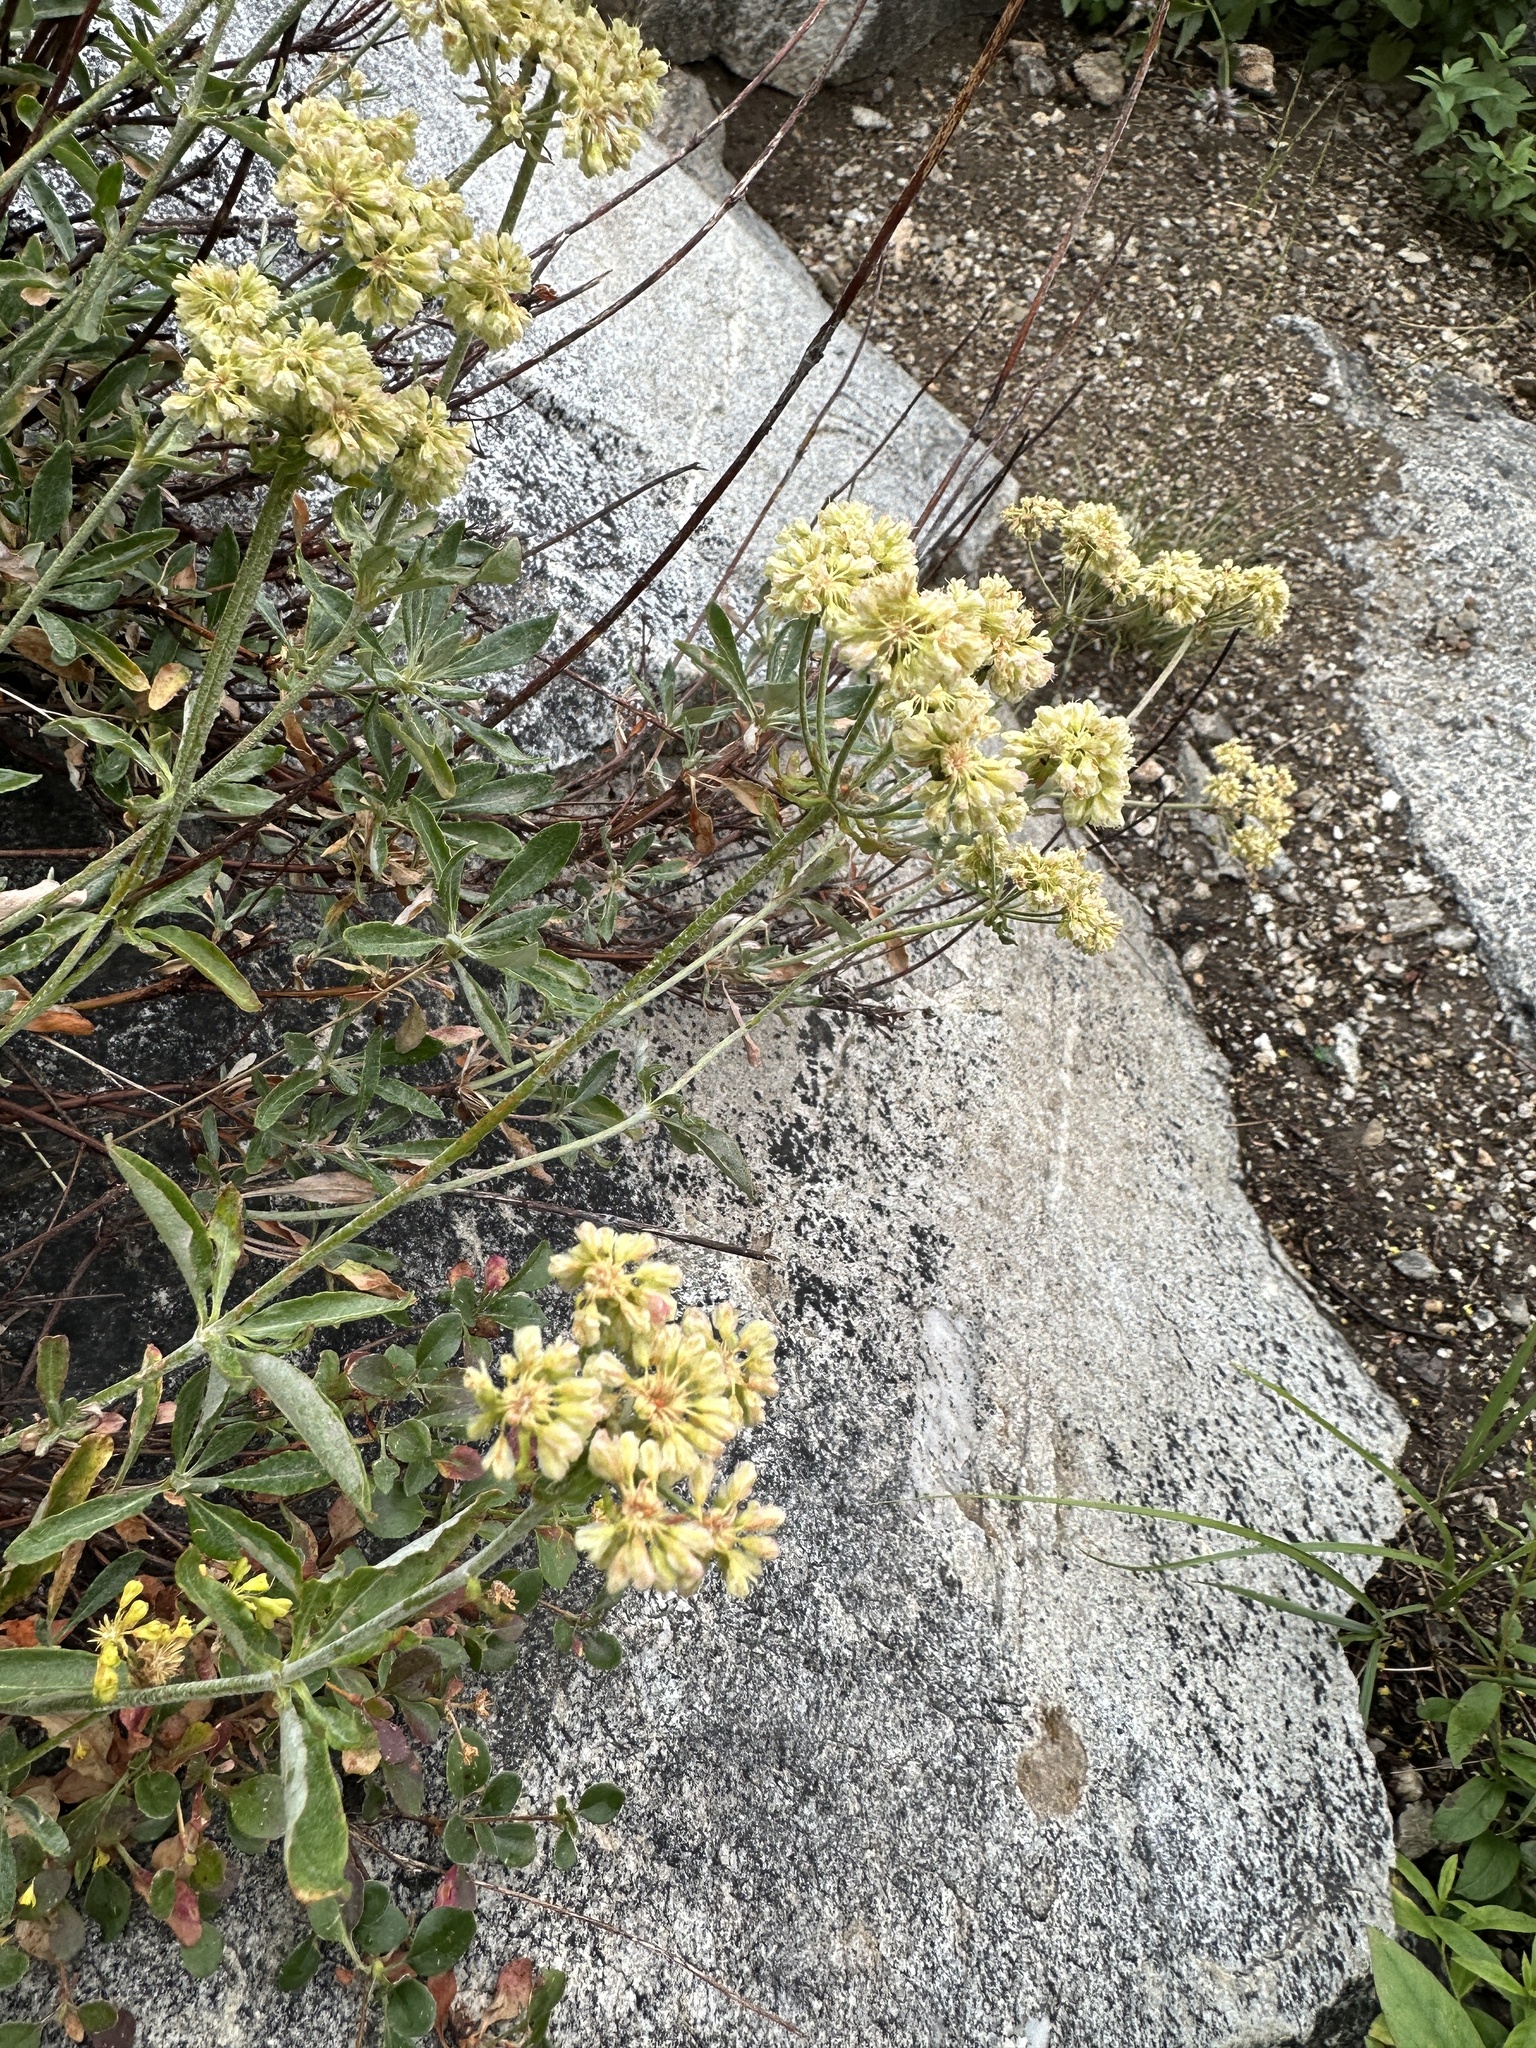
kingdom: Plantae
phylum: Tracheophyta
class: Magnoliopsida
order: Caryophyllales
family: Polygonaceae
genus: Eriogonum
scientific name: Eriogonum heracleoides
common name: Wyeth's buckwheat
